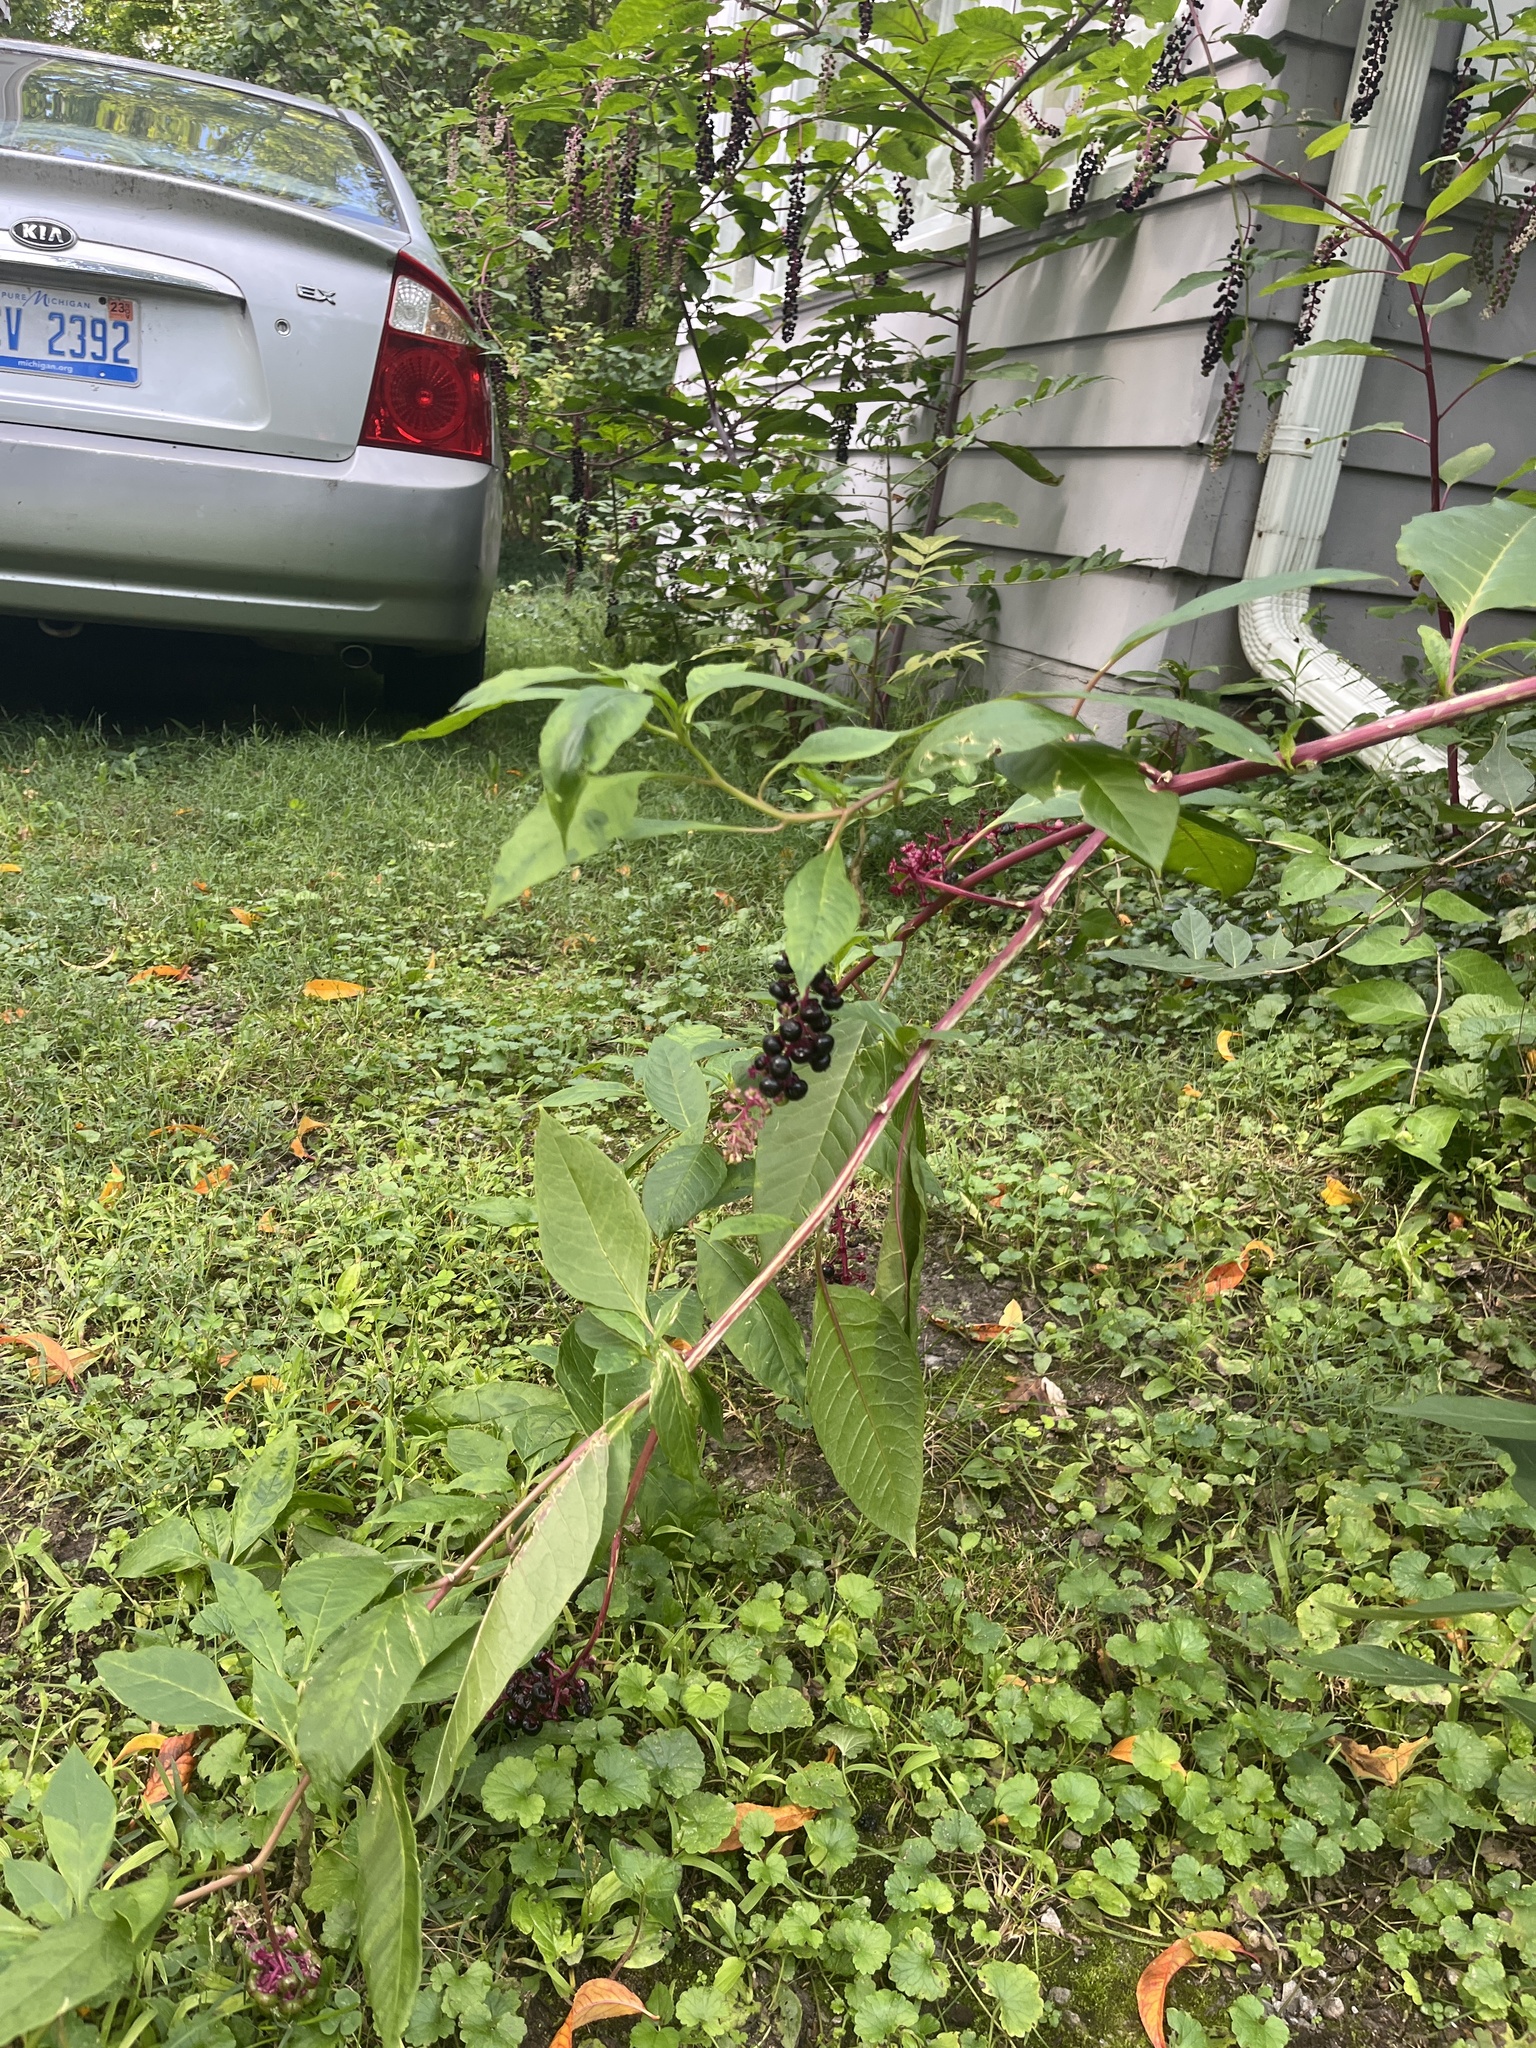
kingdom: Plantae
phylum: Tracheophyta
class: Magnoliopsida
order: Caryophyllales
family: Phytolaccaceae
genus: Phytolacca
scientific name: Phytolacca americana
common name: American pokeweed
